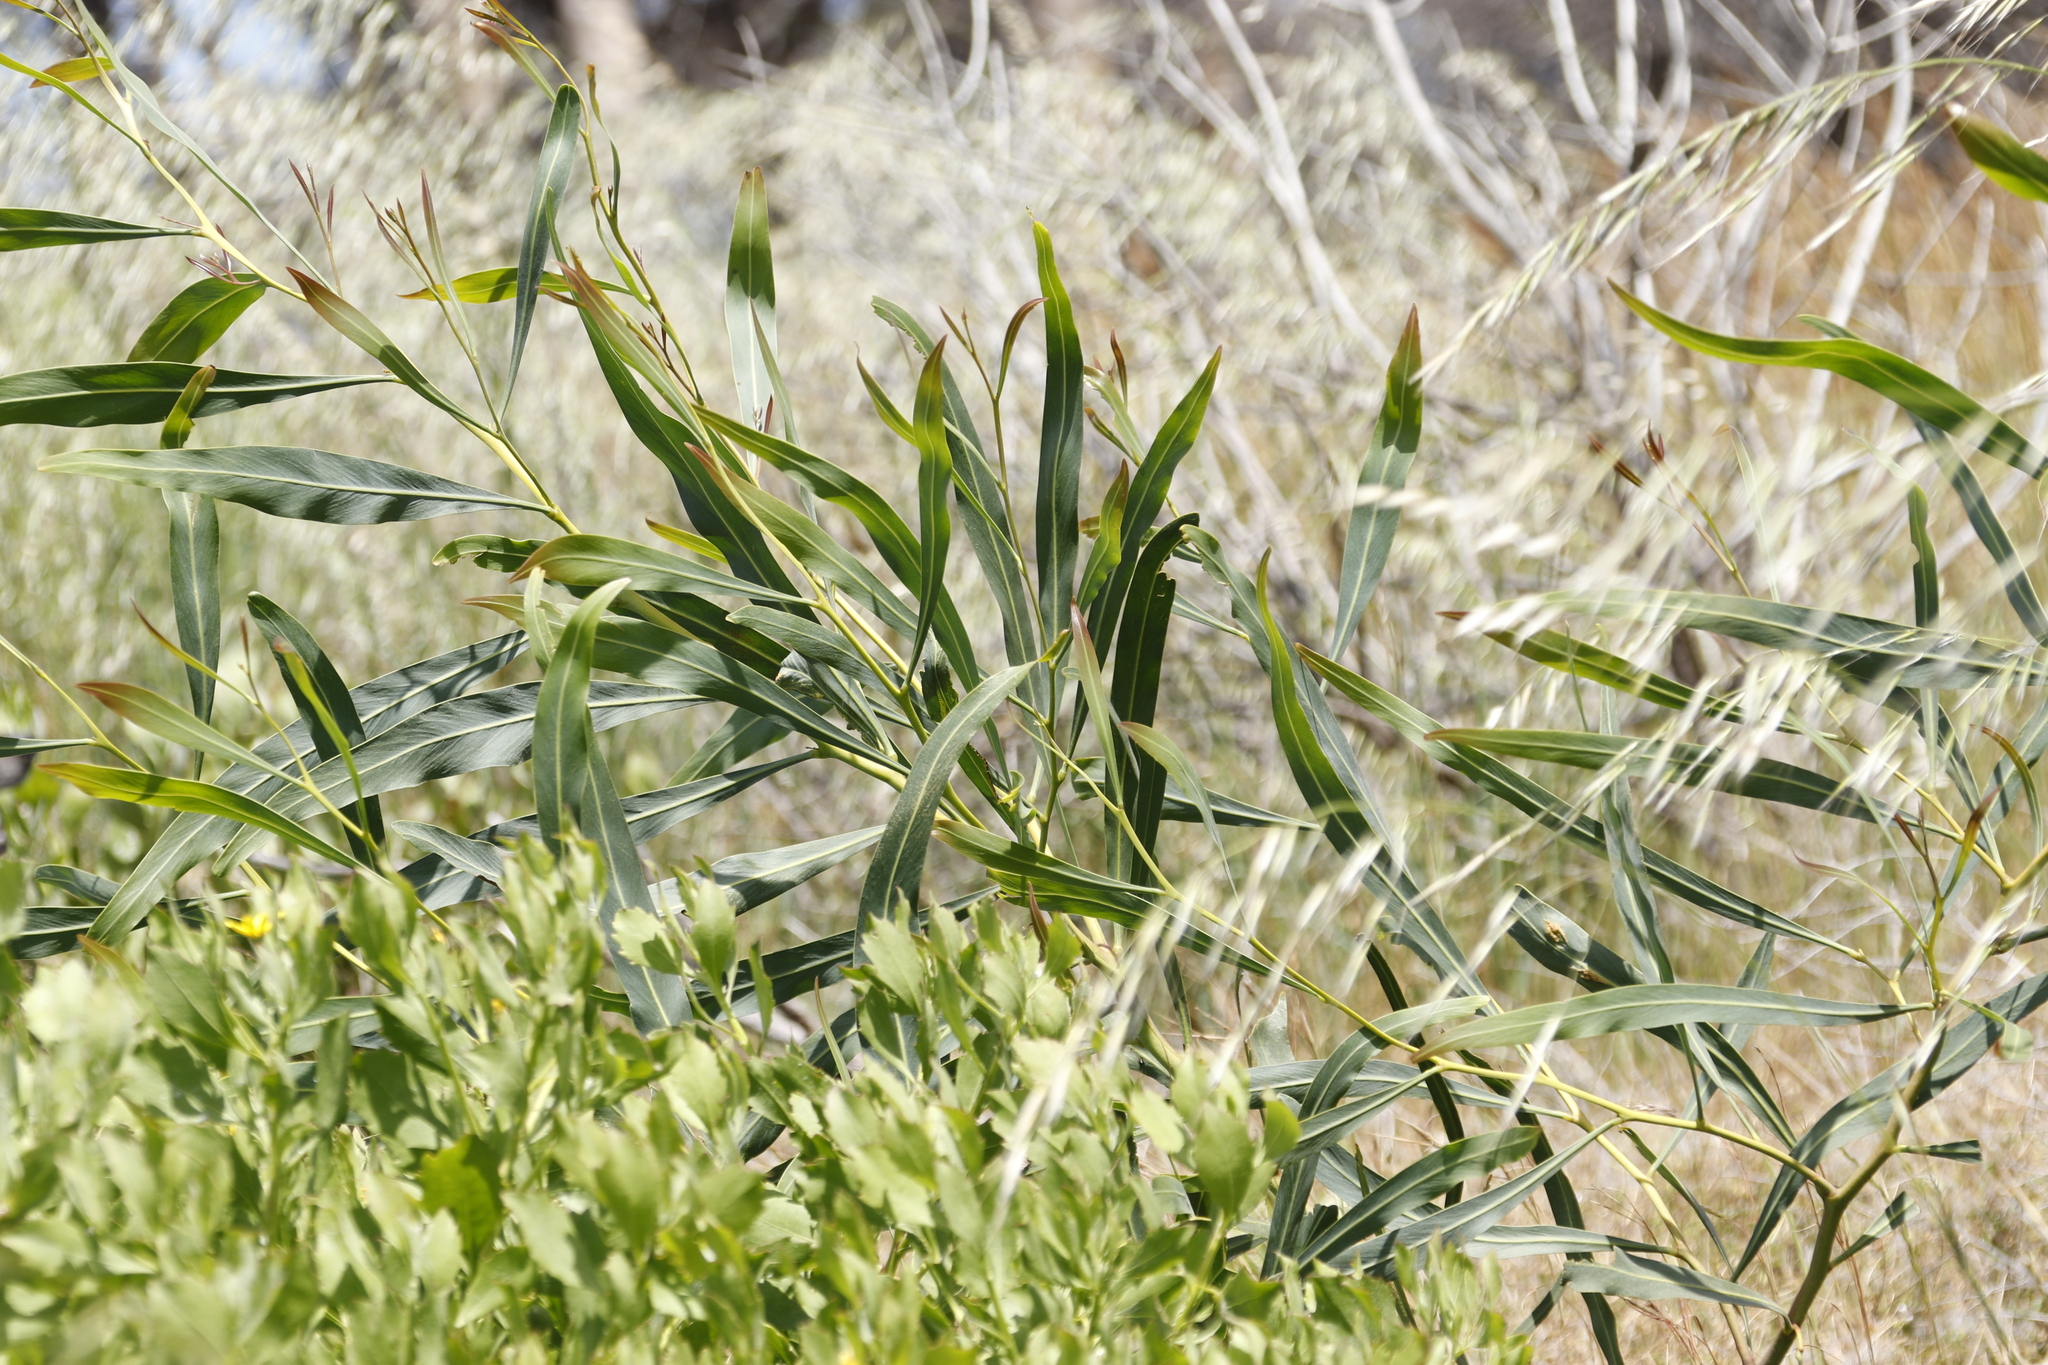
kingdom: Plantae
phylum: Tracheophyta
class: Magnoliopsida
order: Fabales
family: Fabaceae
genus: Acacia
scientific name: Acacia saligna
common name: Orange wattle
